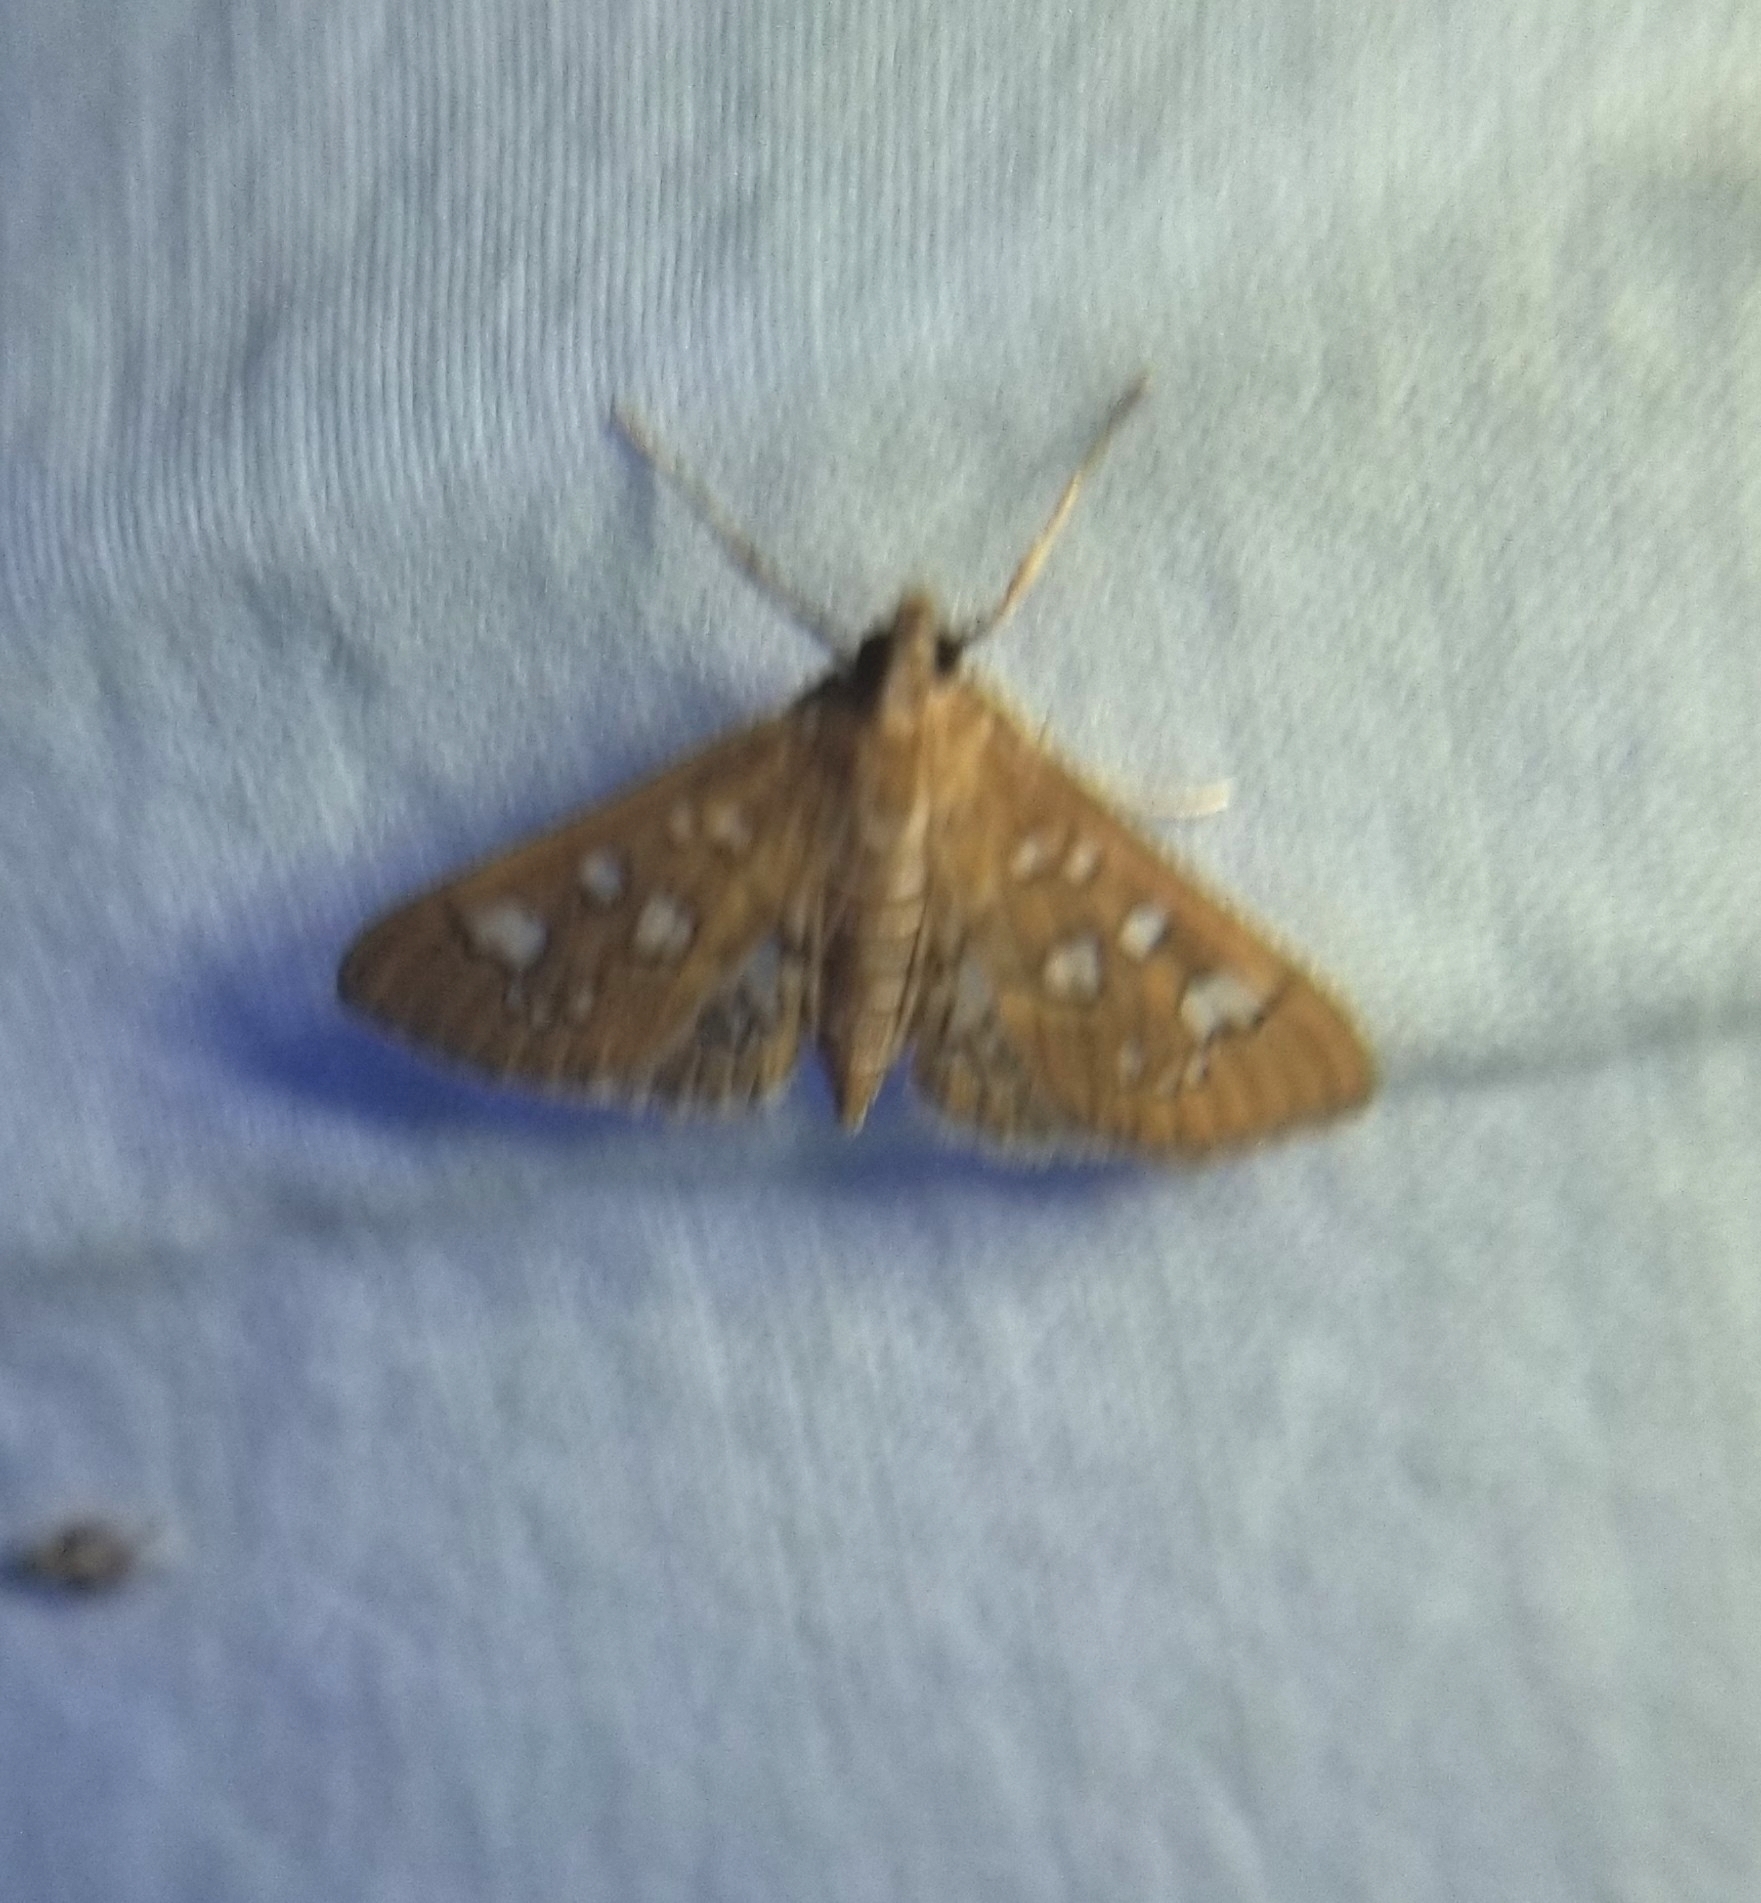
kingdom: Animalia
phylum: Arthropoda
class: Insecta
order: Lepidoptera
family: Crambidae
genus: Samea
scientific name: Samea baccatalis
